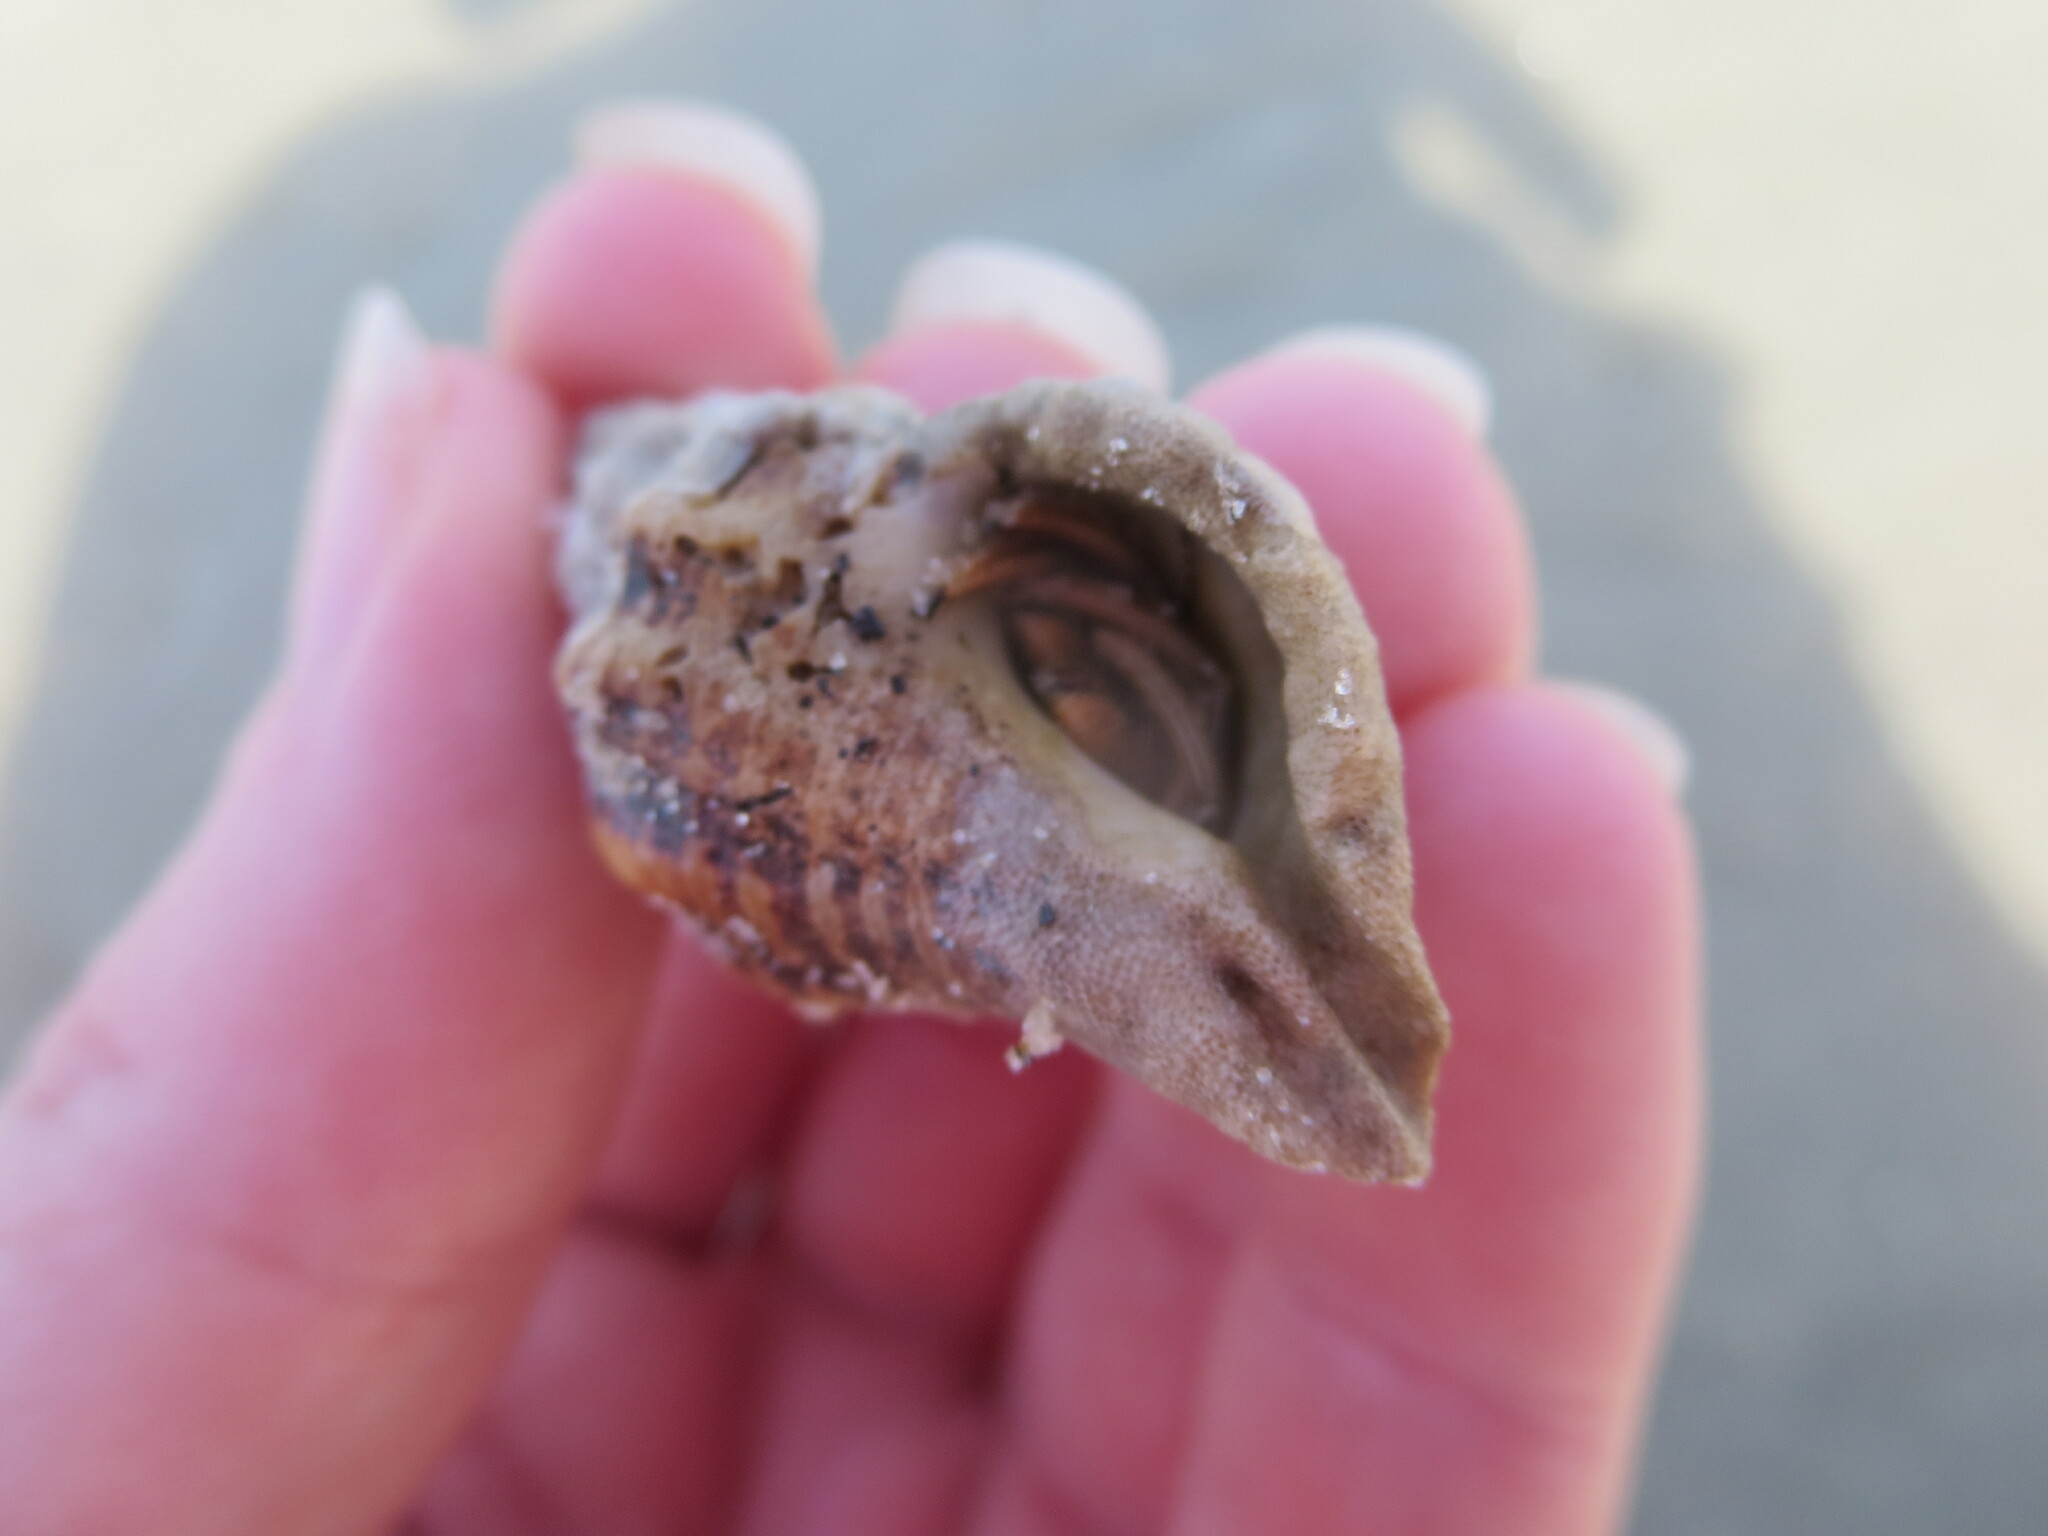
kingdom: Animalia
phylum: Arthropoda
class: Malacostraca
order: Decapoda
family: Diogenidae
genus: Clibanarius
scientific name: Clibanarius vittatus
